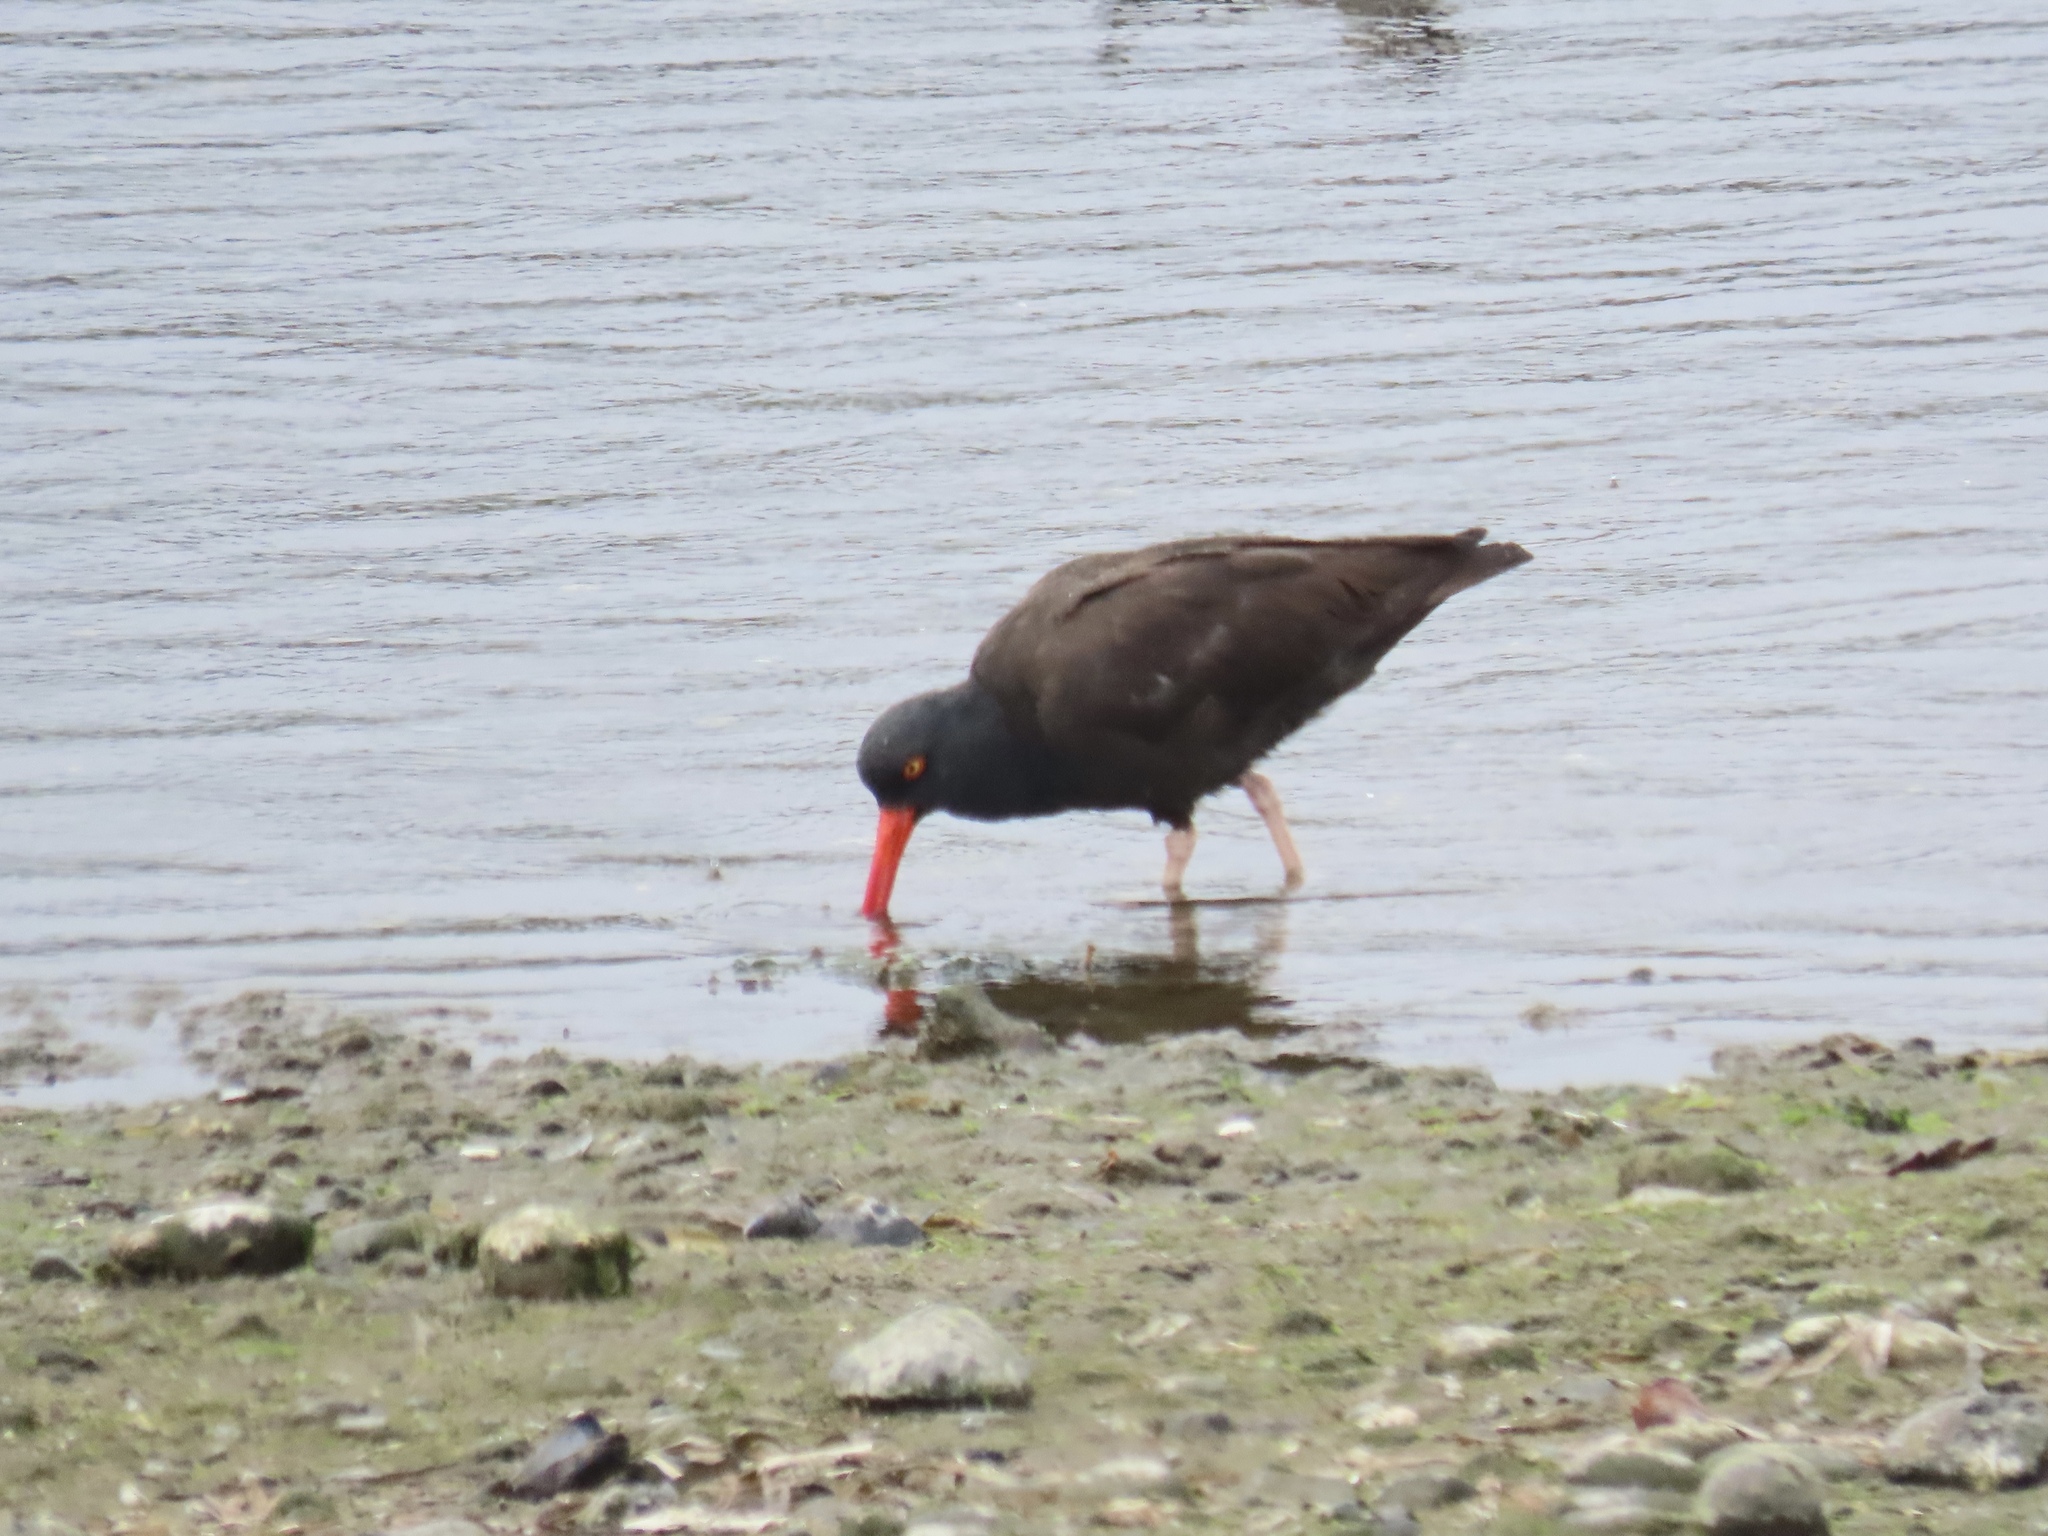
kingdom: Animalia
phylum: Chordata
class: Aves
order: Charadriiformes
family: Haematopodidae
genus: Haematopus
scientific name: Haematopus bachmani
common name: Black oystercatcher
